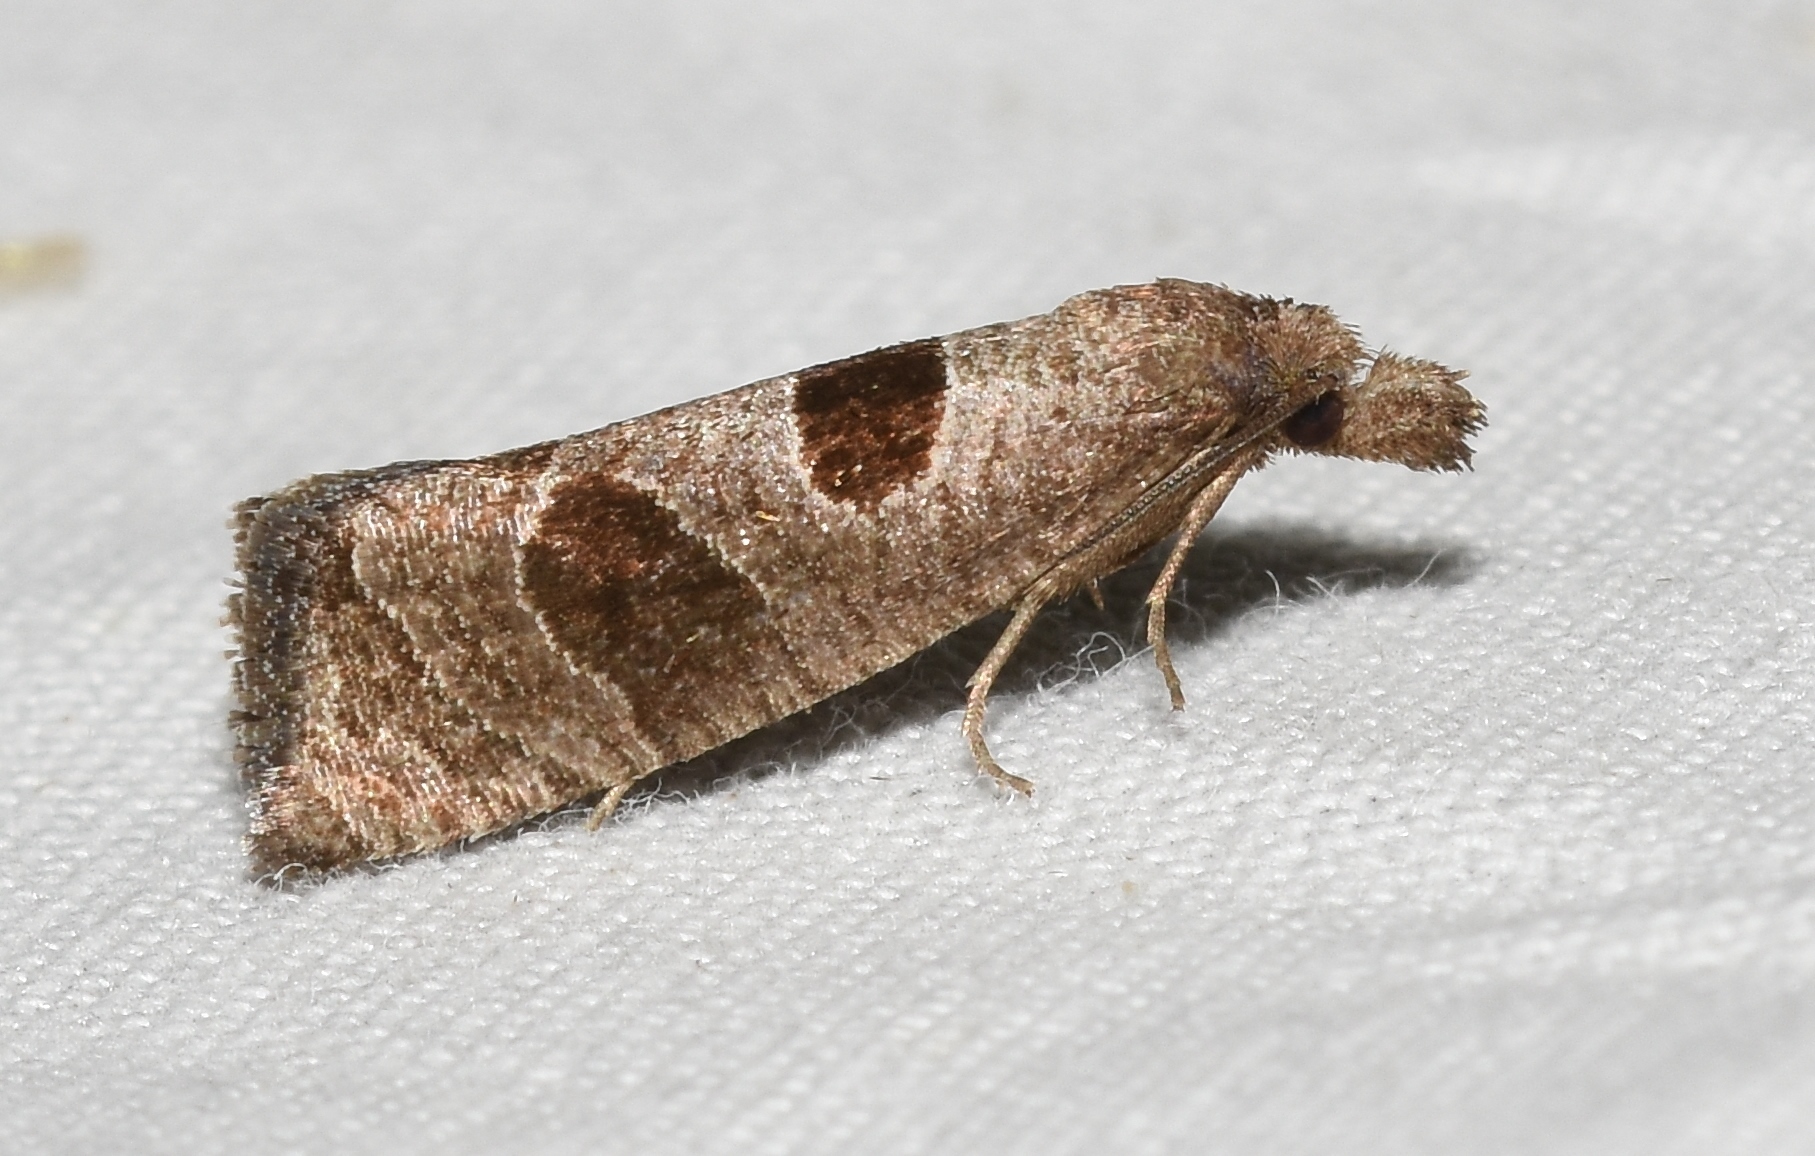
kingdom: Animalia
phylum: Arthropoda
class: Insecta
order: Lepidoptera
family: Tortricidae
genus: Pelochrista
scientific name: Pelochrista dorsisignatana
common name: Triangle-backed pelochrista moth
